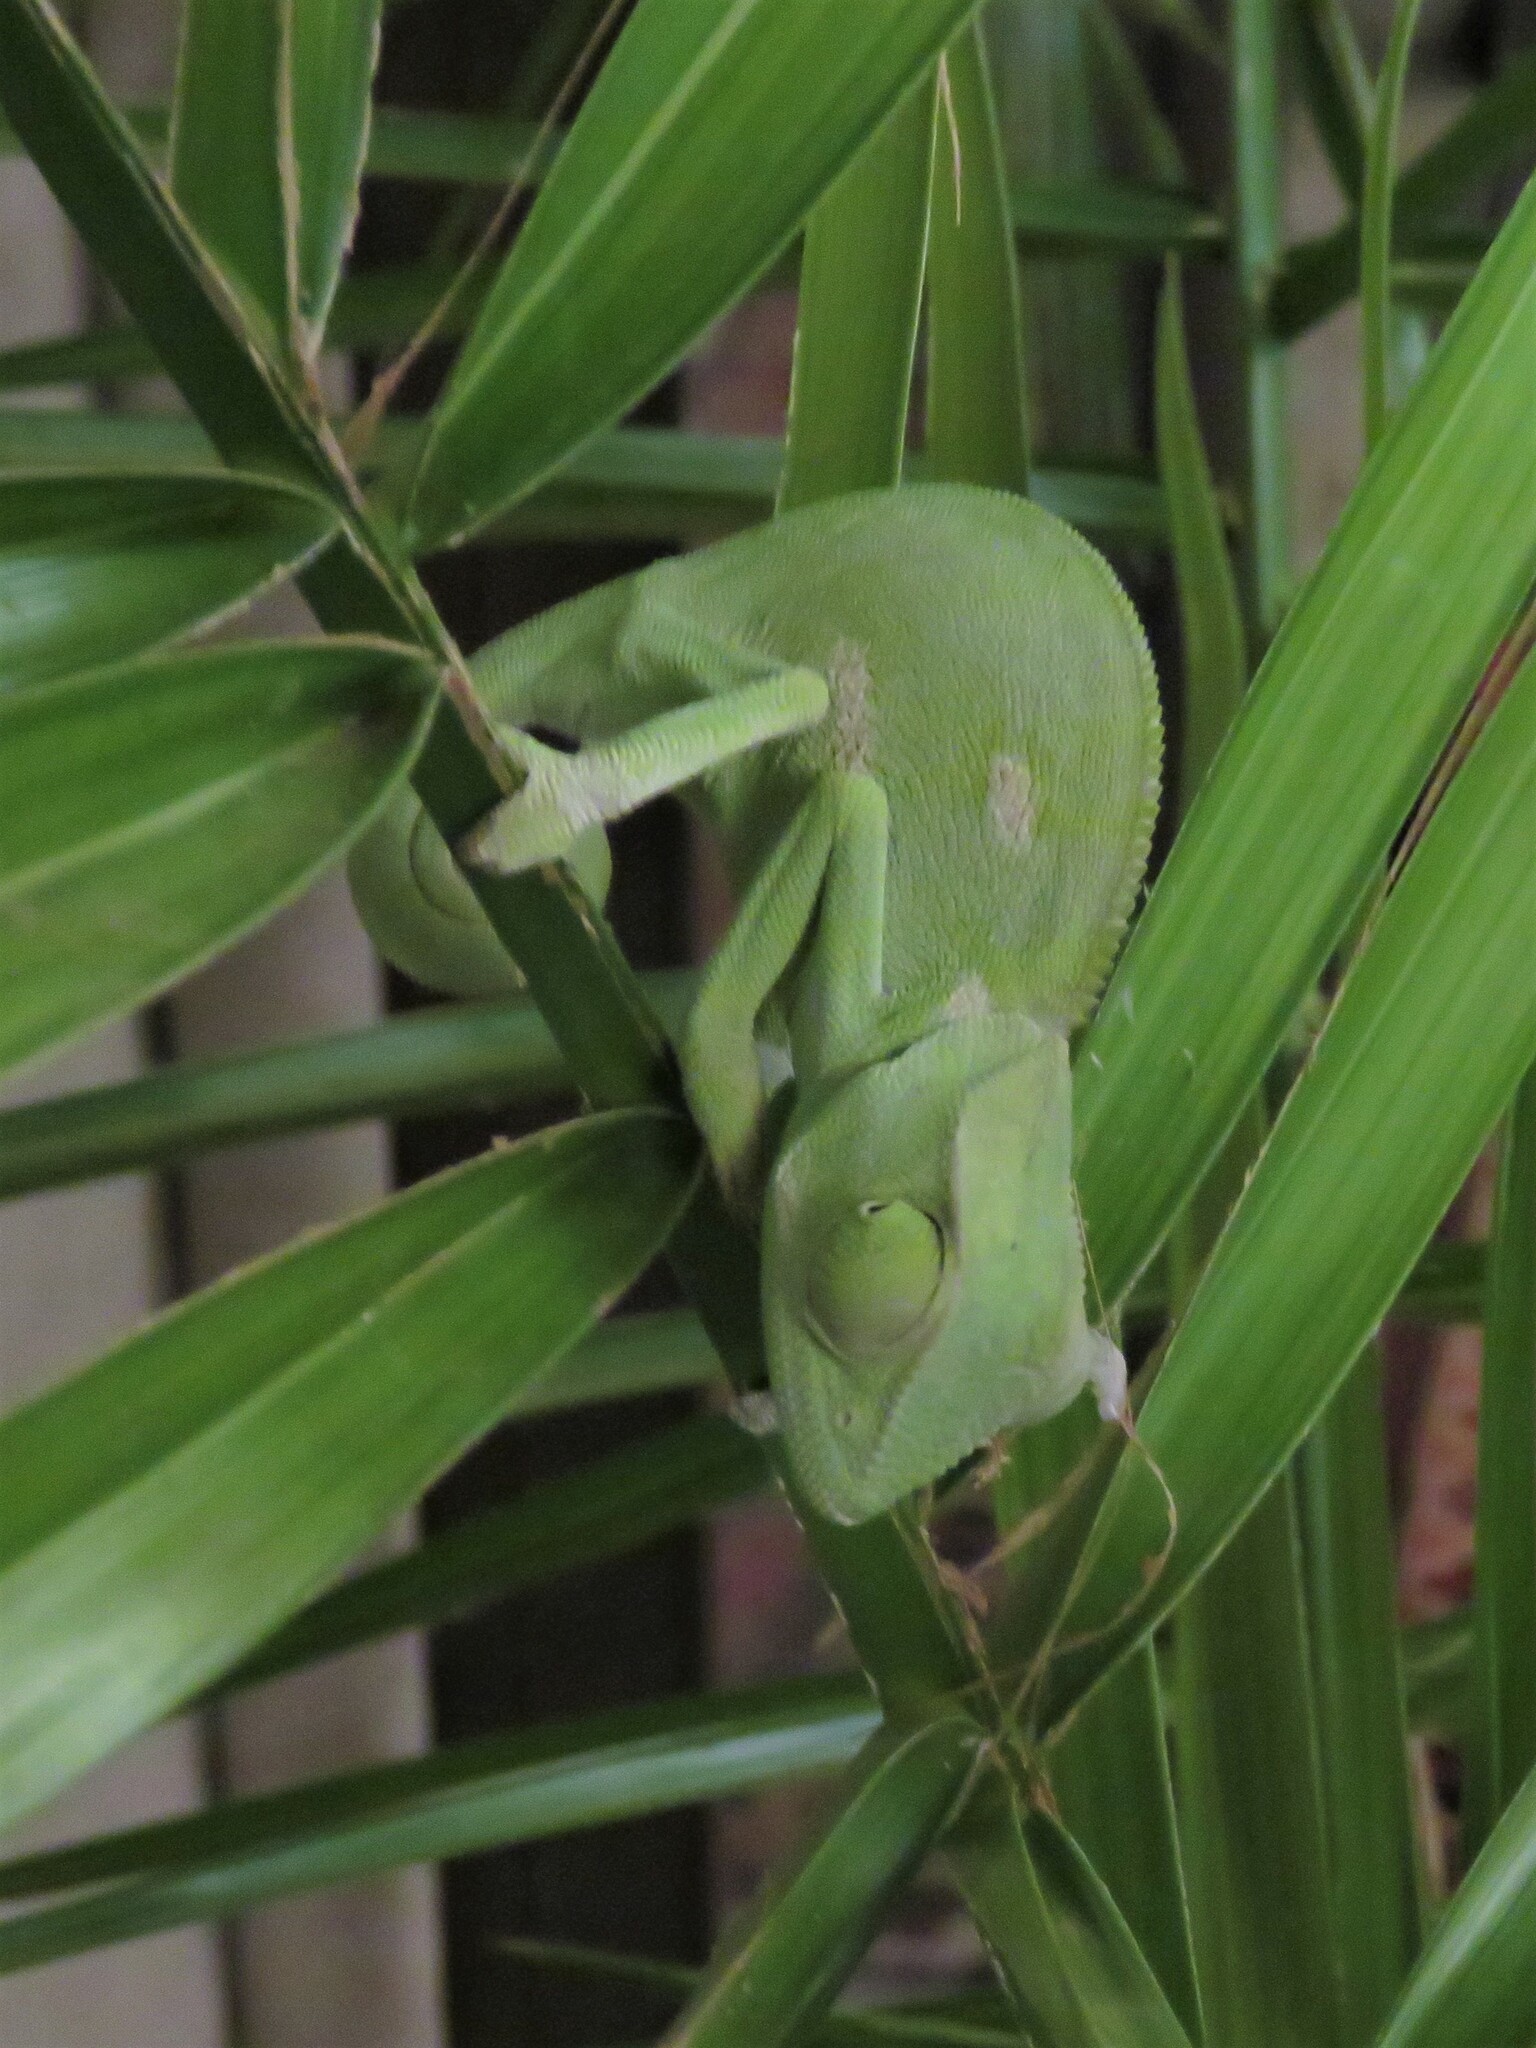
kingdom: Animalia
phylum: Chordata
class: Squamata
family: Chamaeleonidae
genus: Chamaeleo
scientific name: Chamaeleo dilepis
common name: Flapneck chameleon
